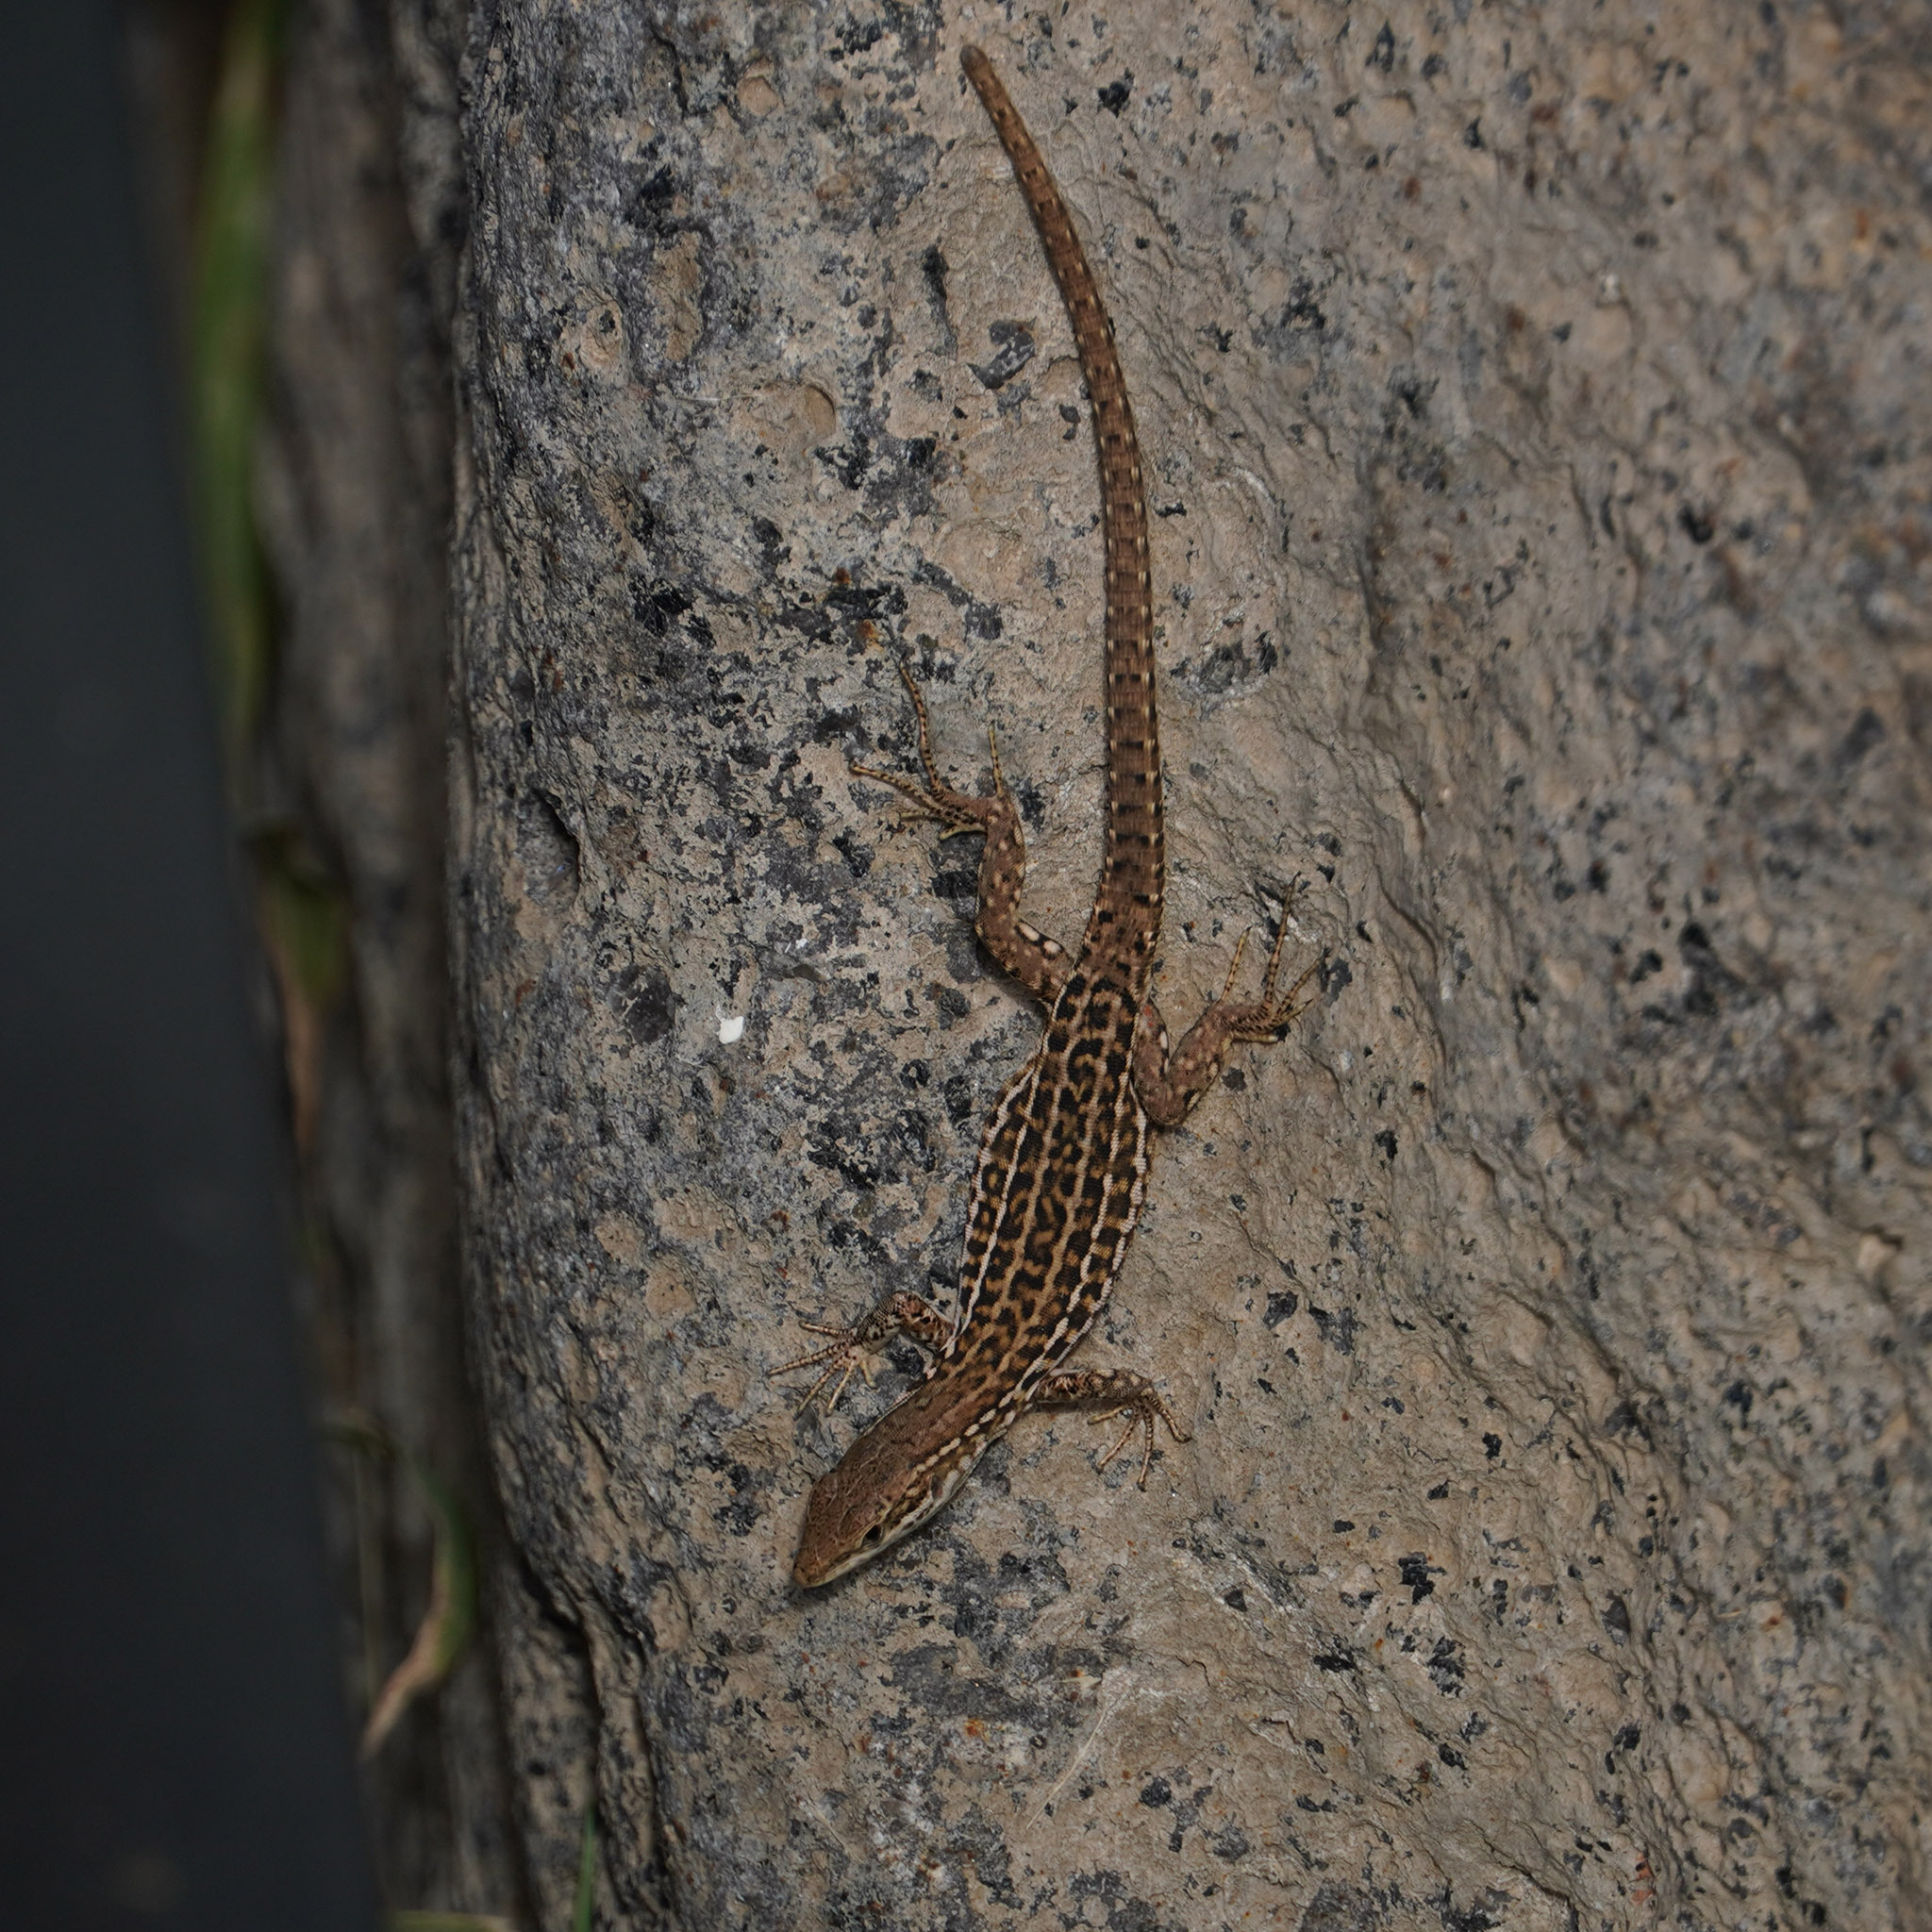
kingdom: Animalia
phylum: Chordata
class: Squamata
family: Lacertidae
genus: Podarcis
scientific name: Podarcis siculus
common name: Italian wall lizard
